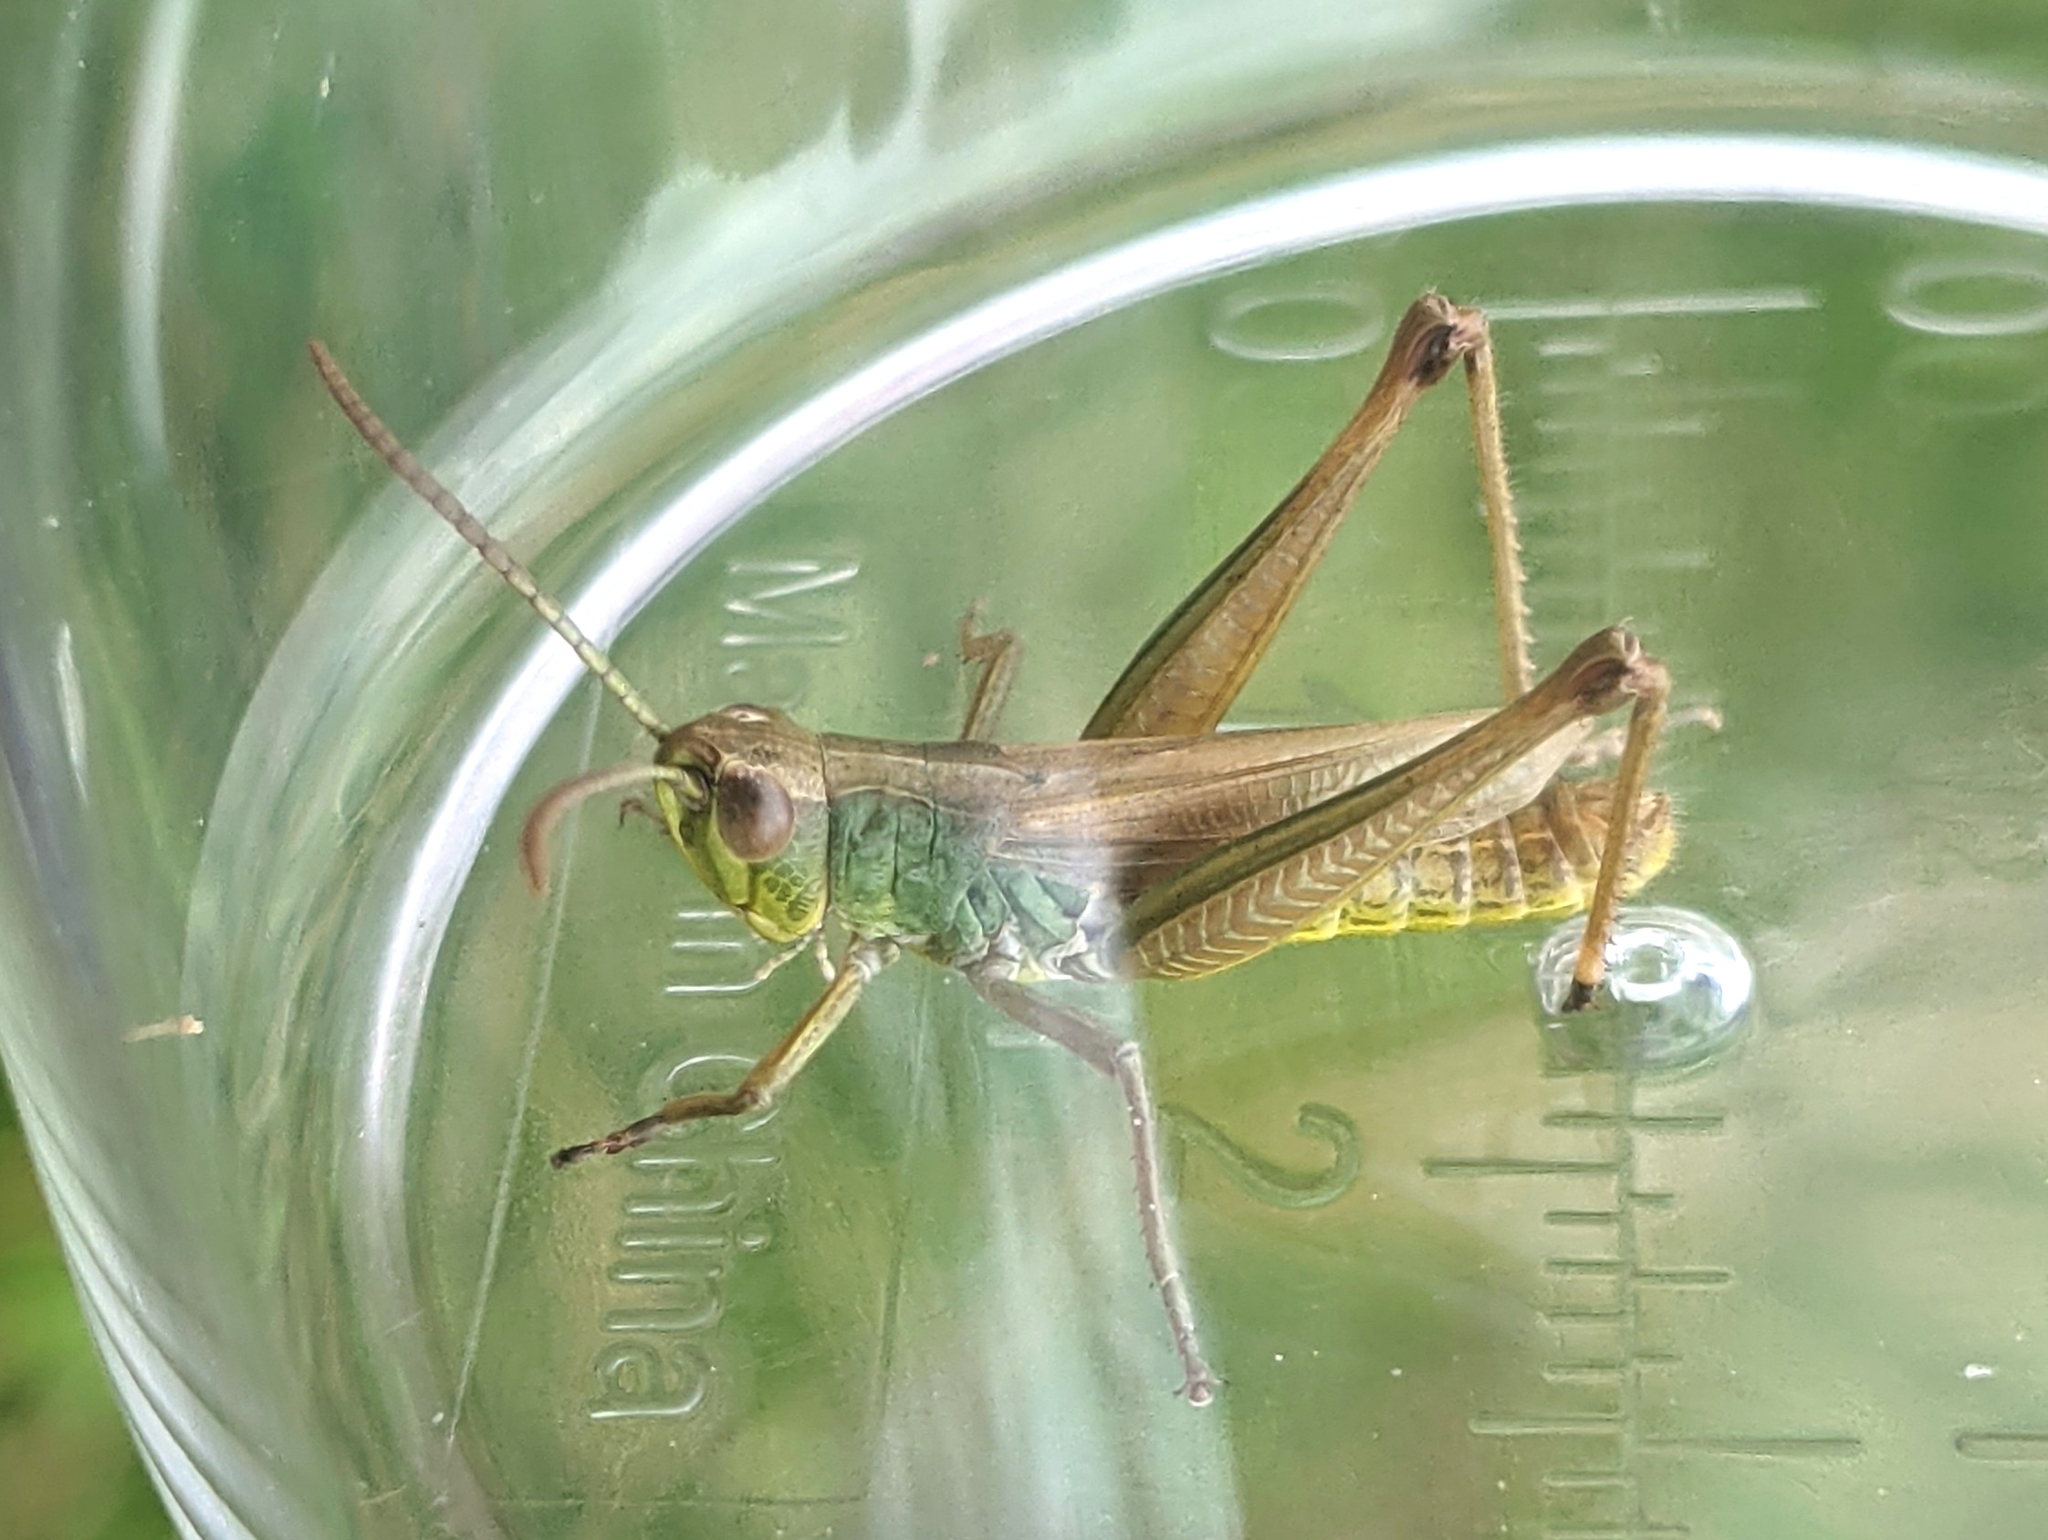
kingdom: Animalia
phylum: Arthropoda
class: Insecta
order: Orthoptera
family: Acrididae
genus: Pseudochorthippus
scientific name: Pseudochorthippus parallelus
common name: Meadow grasshopper
